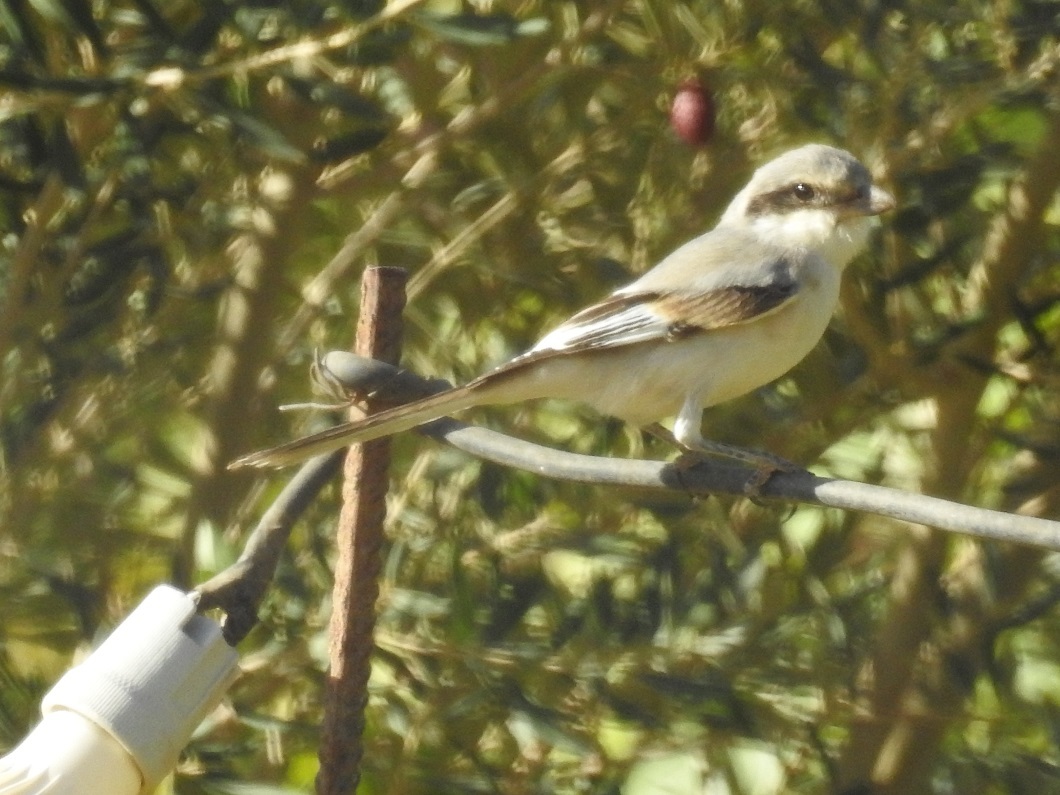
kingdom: Animalia
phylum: Chordata
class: Aves
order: Passeriformes
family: Laniidae
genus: Lanius
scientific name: Lanius excubitor
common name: Great grey shrike
